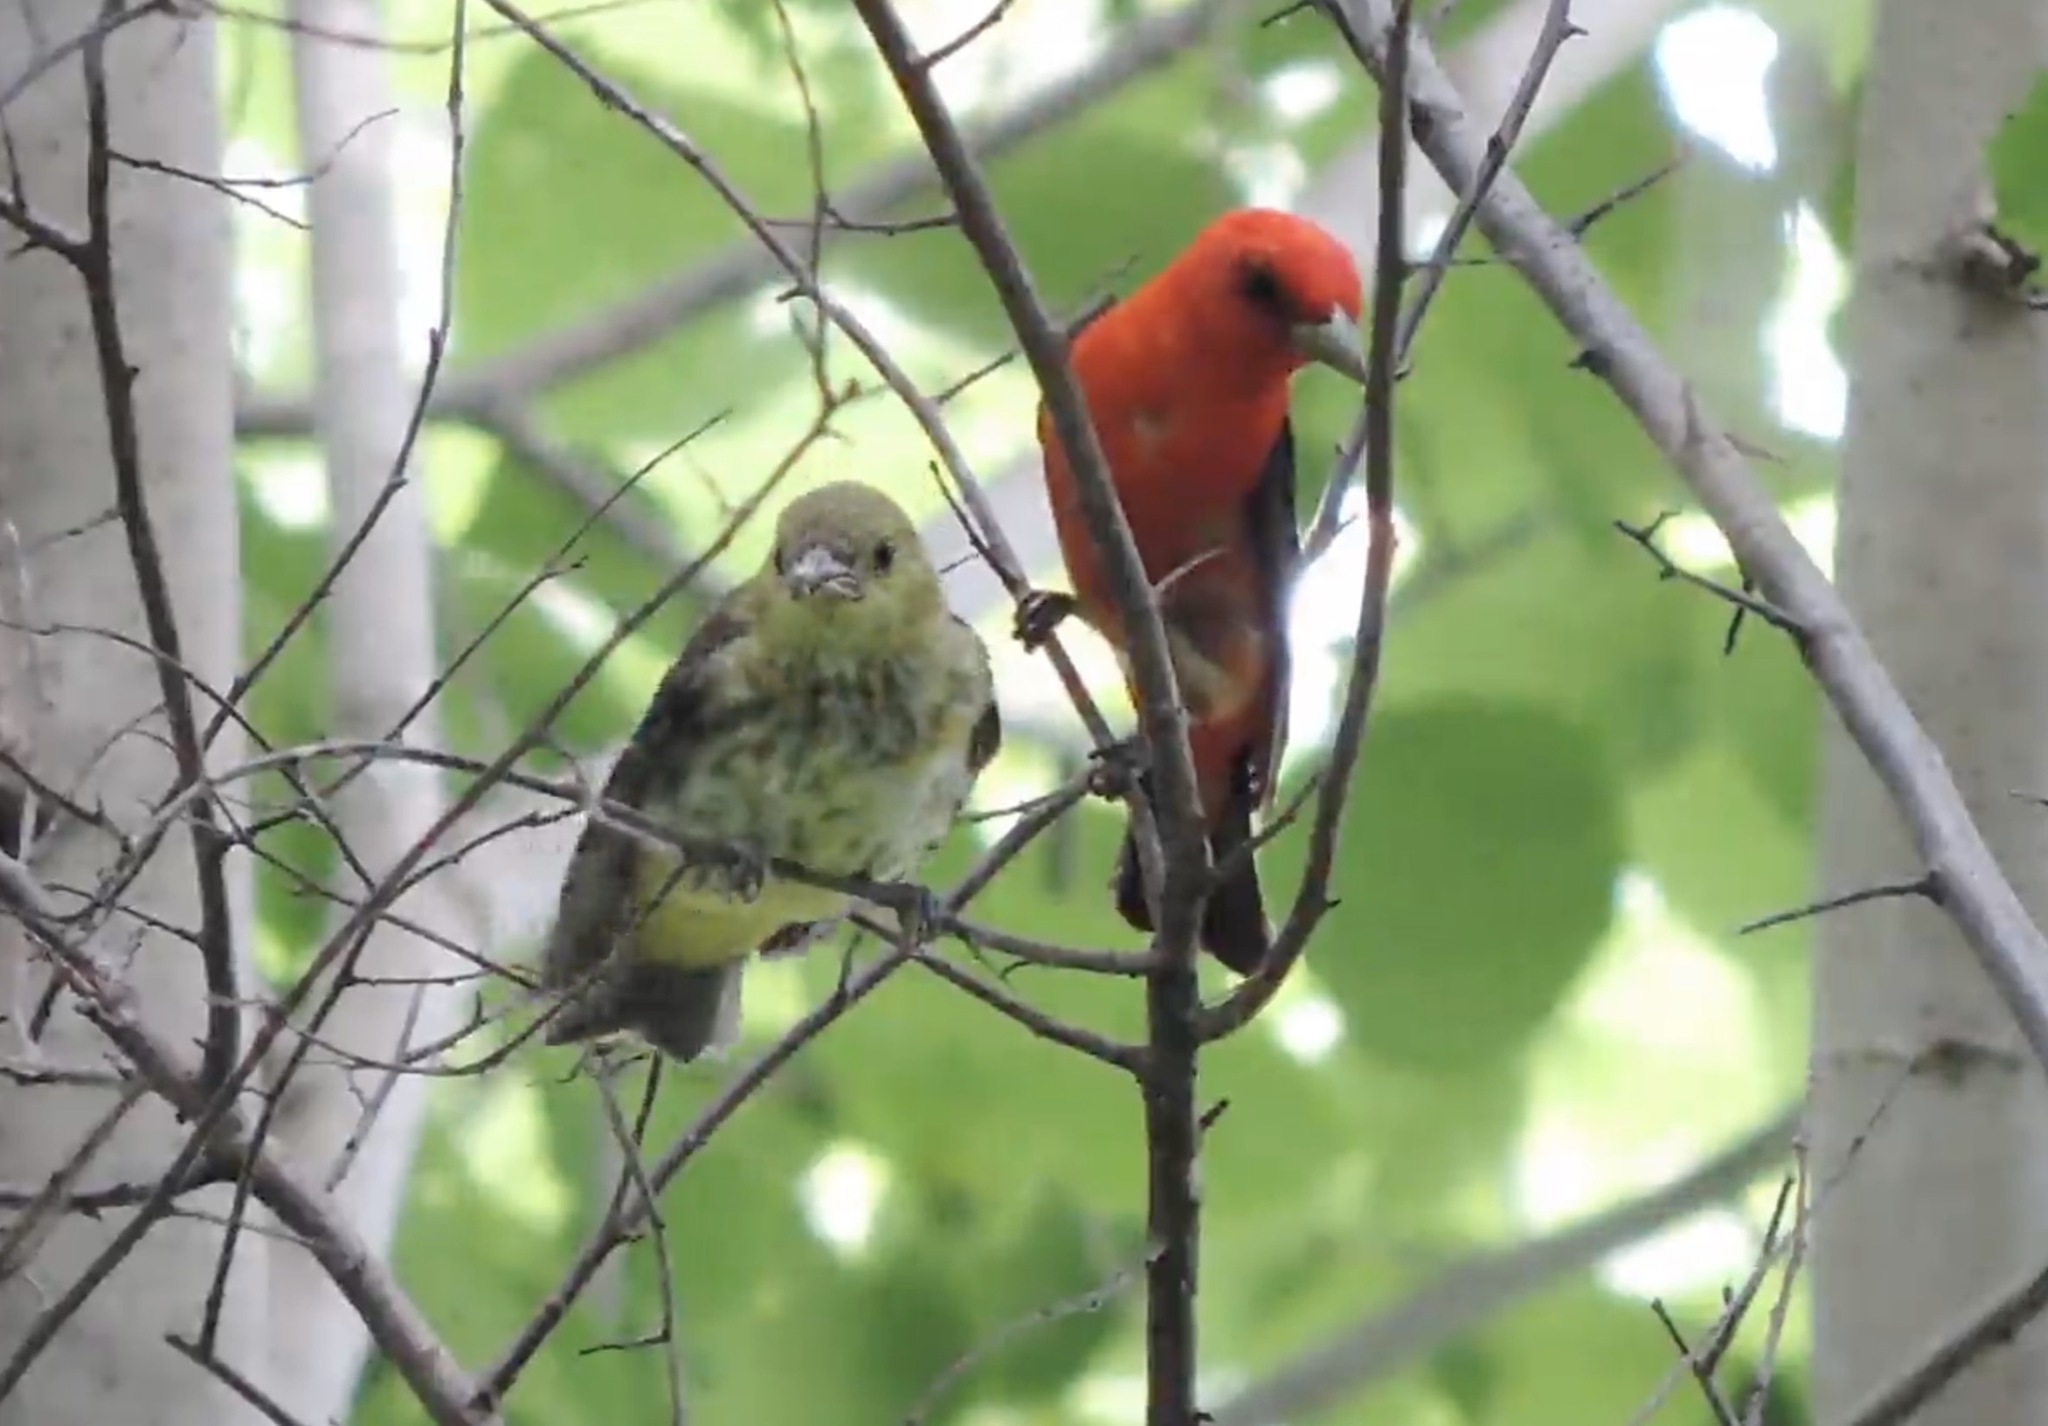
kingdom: Animalia
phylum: Chordata
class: Aves
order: Passeriformes
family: Cardinalidae
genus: Piranga
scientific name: Piranga olivacea
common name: Scarlet tanager
